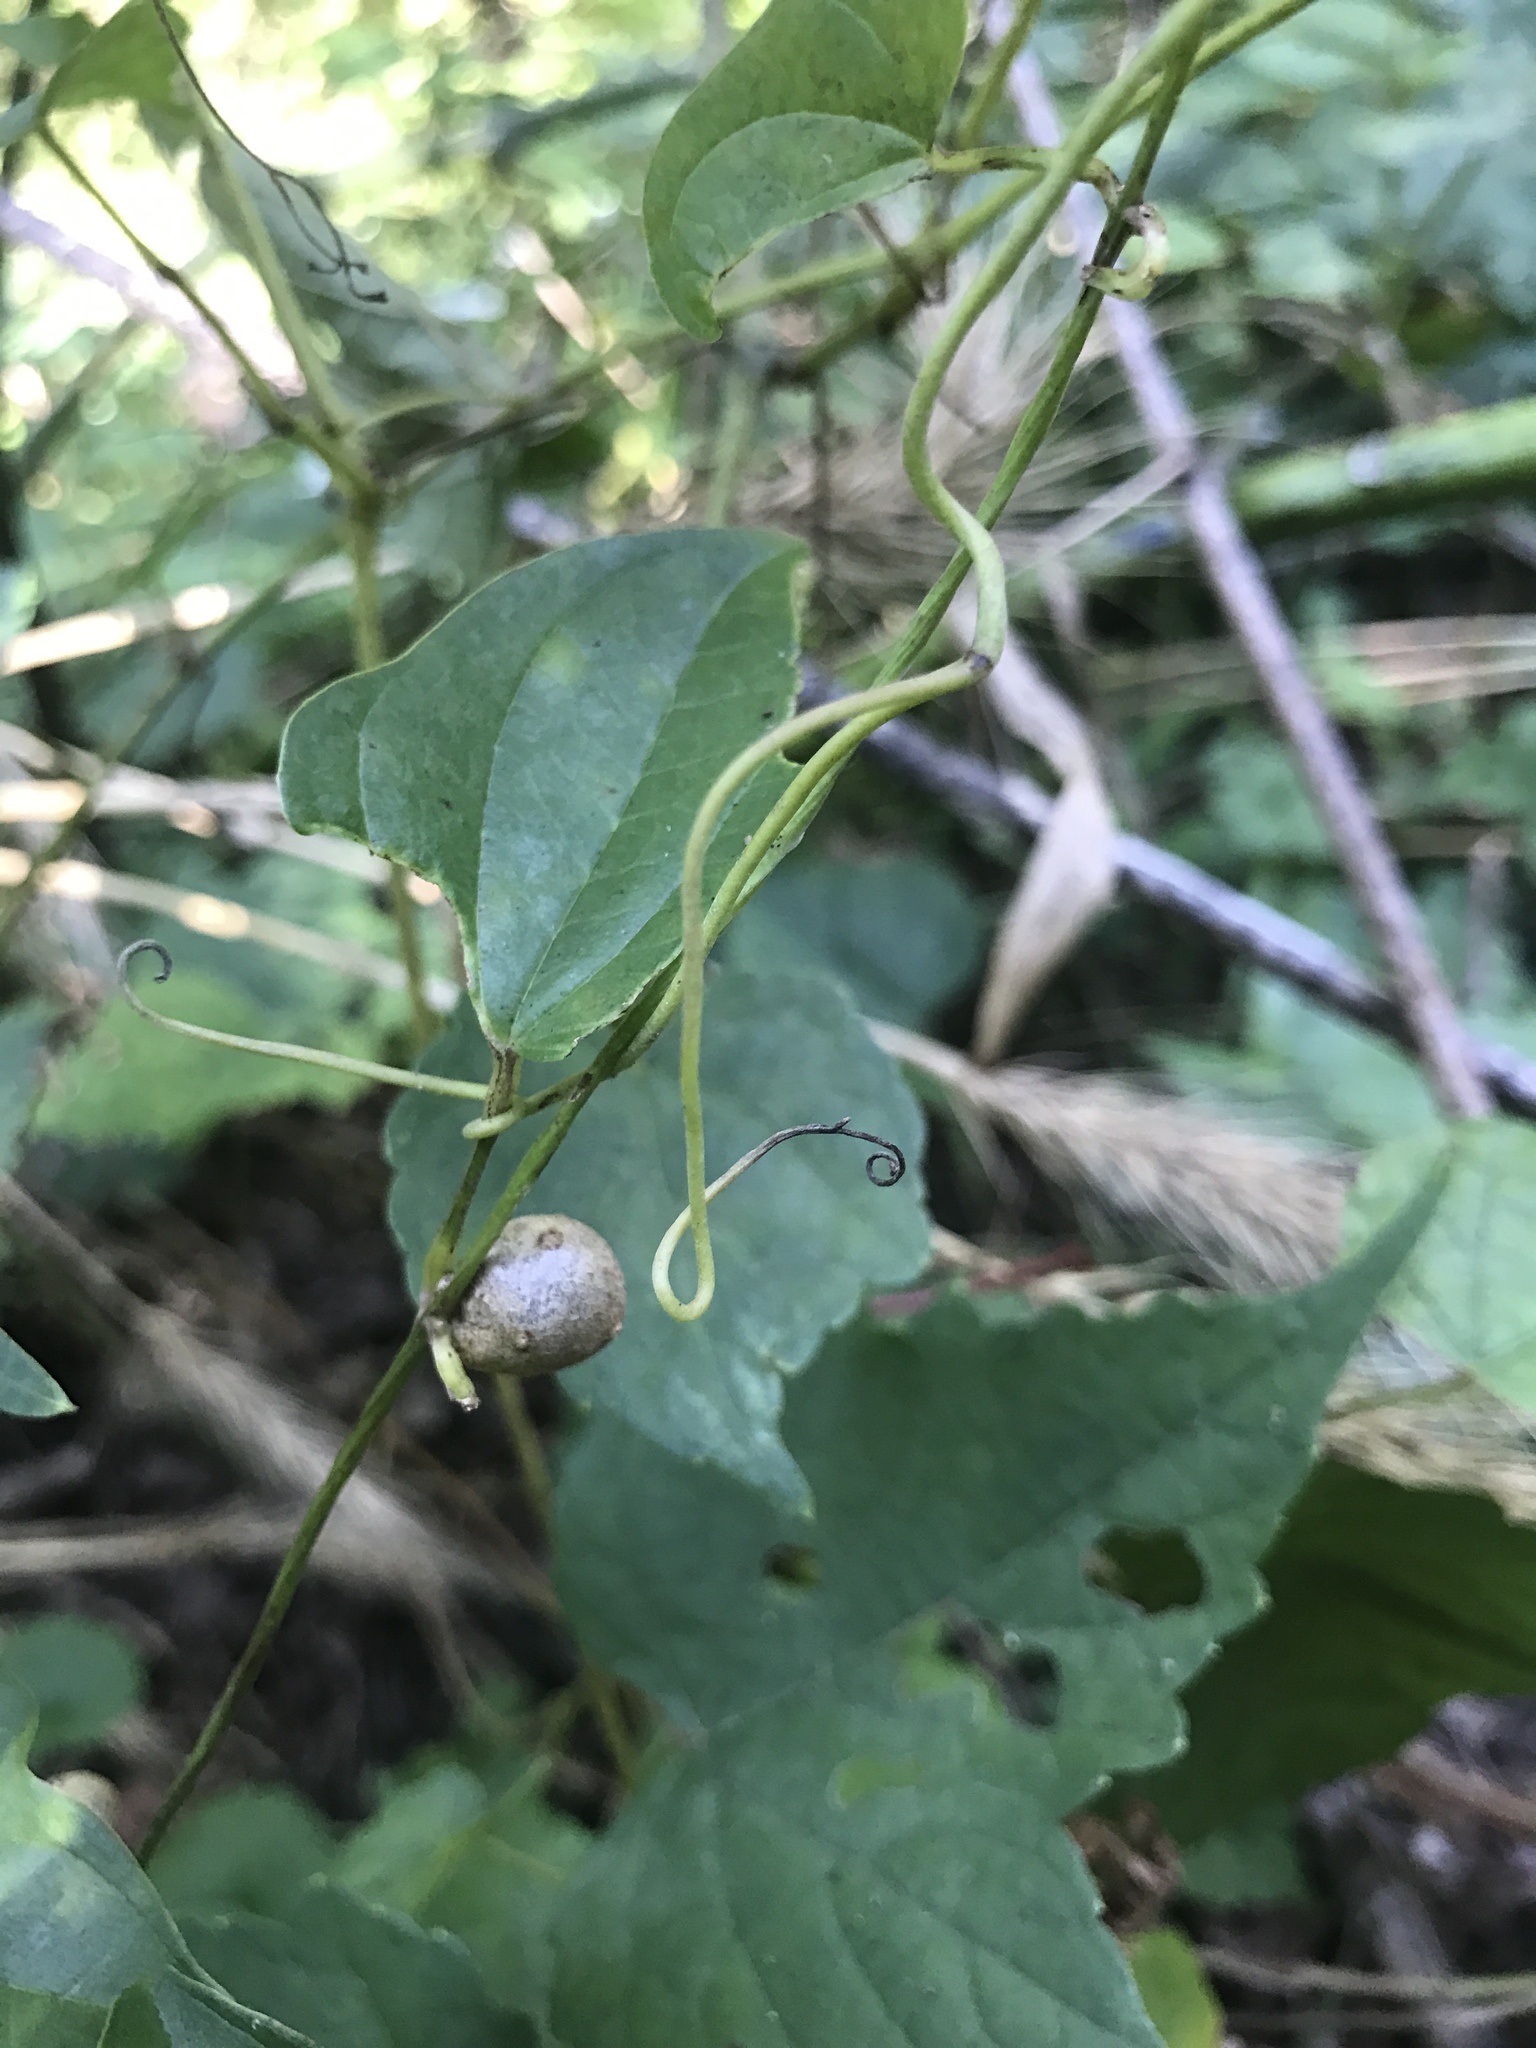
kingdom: Plantae
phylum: Tracheophyta
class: Liliopsida
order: Dioscoreales
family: Dioscoreaceae
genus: Dioscorea
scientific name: Dioscorea polystachya
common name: Chinese yam
